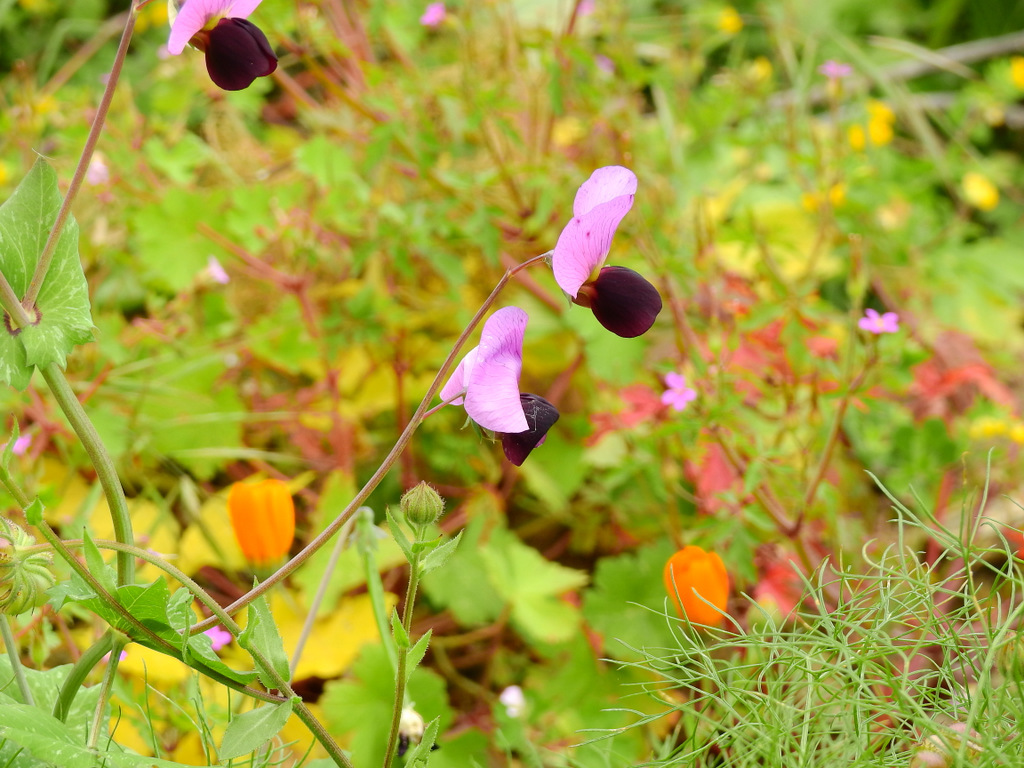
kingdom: Plantae
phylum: Tracheophyta
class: Magnoliopsida
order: Fabales
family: Fabaceae
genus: Lathyrus
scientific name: Lathyrus oleraceus
